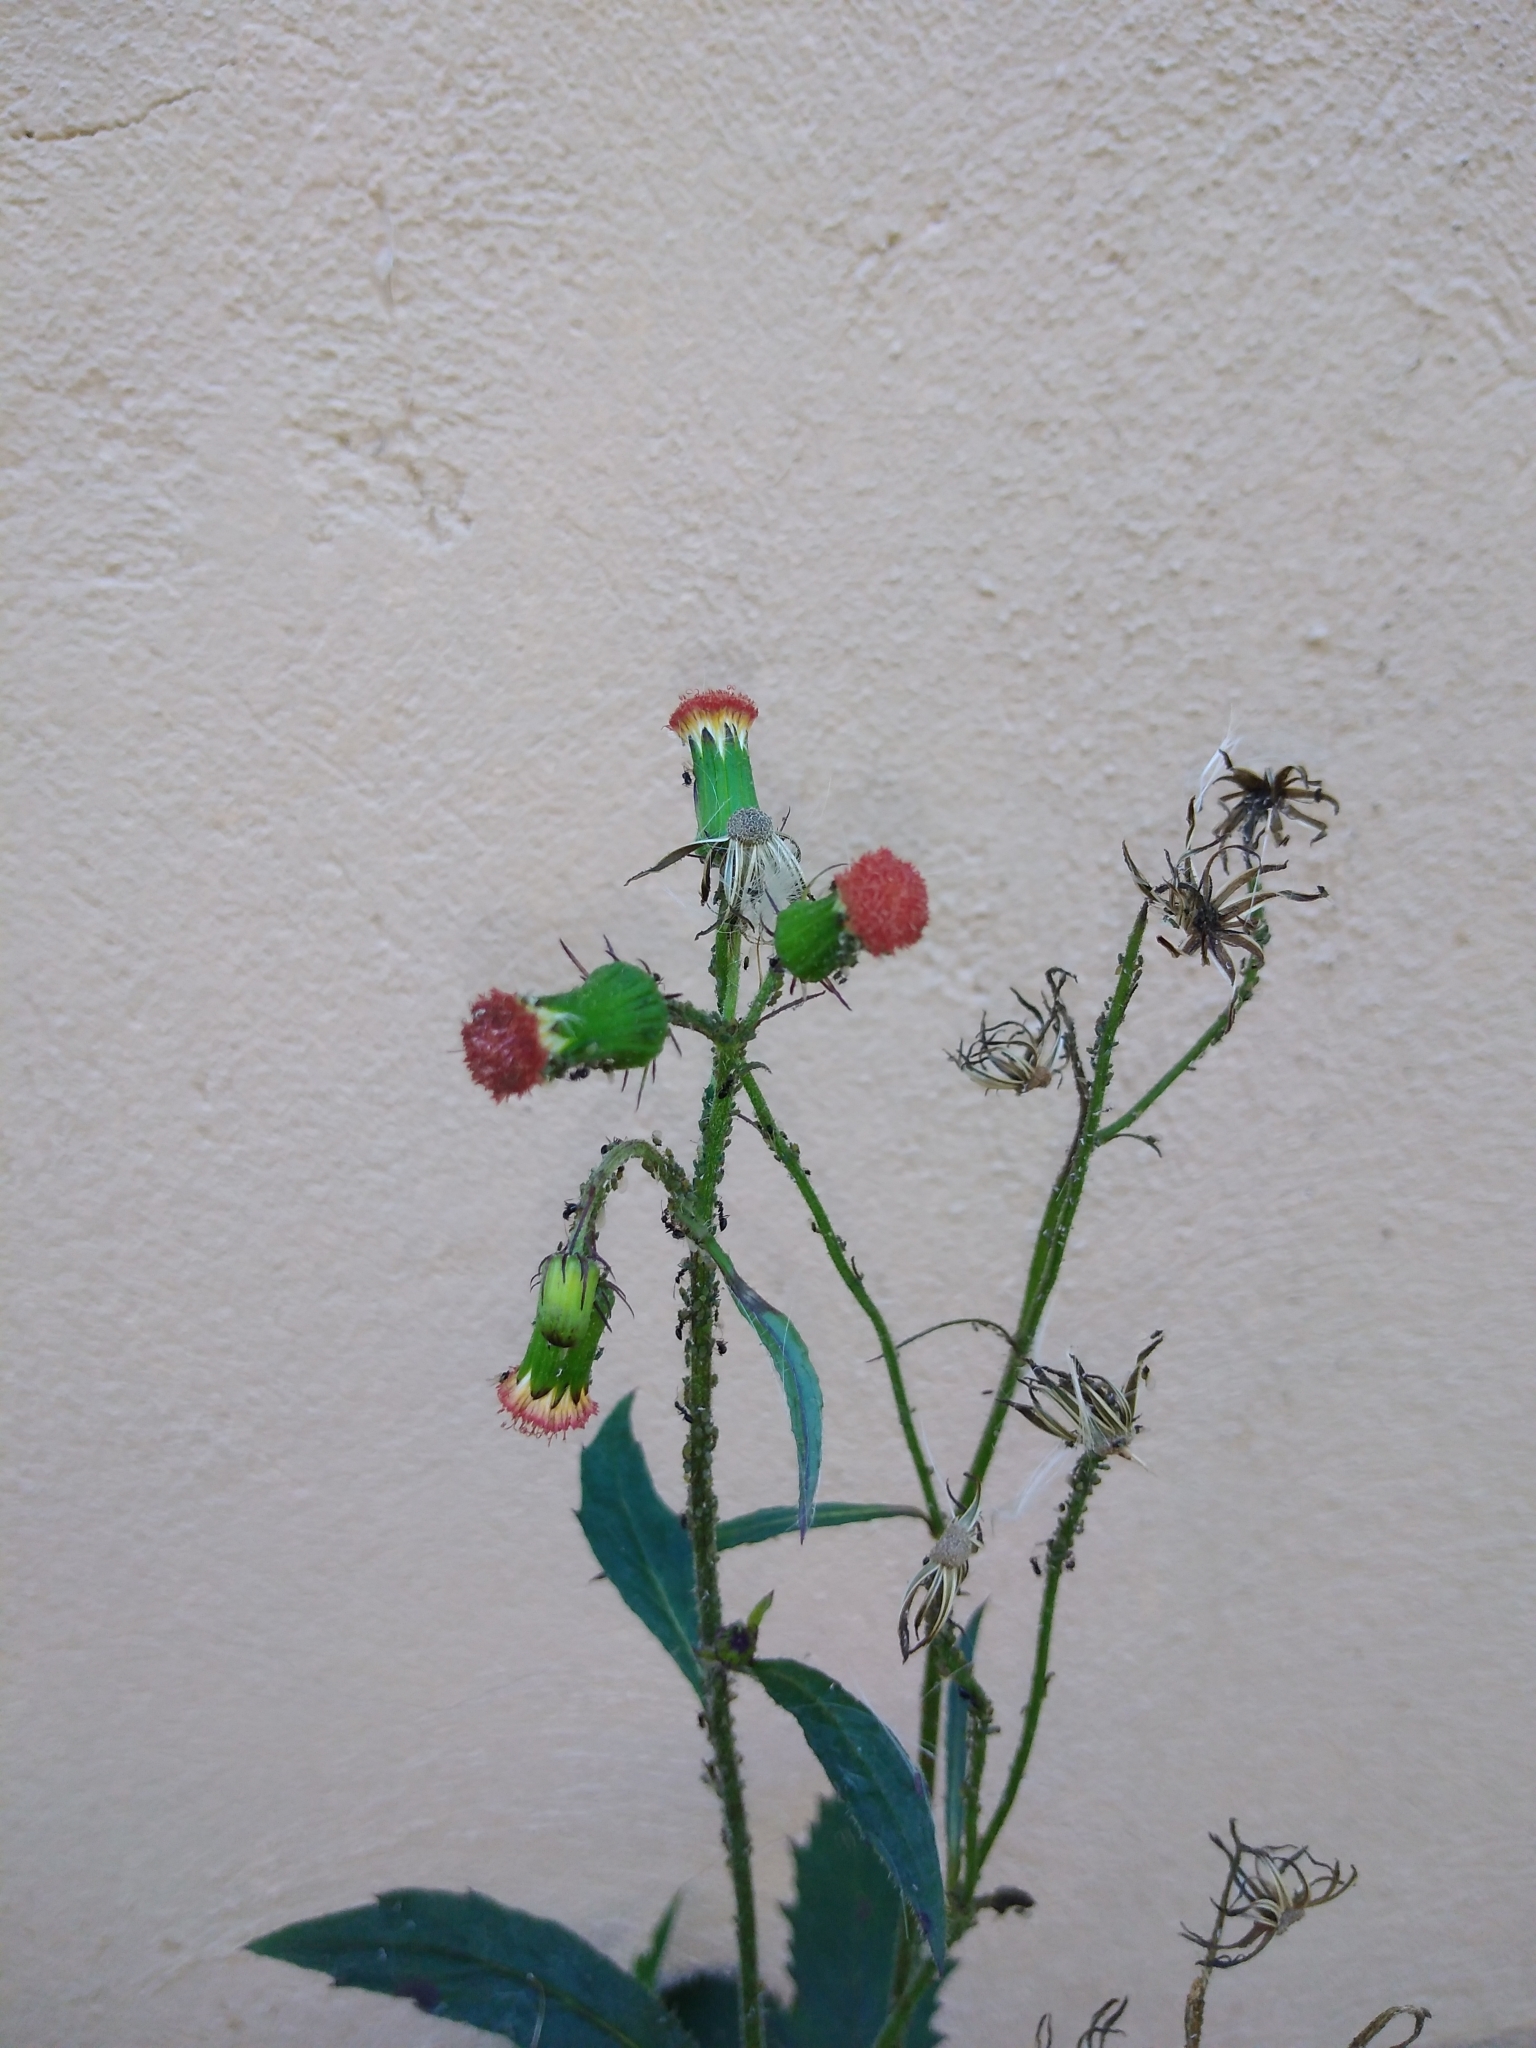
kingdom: Plantae
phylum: Tracheophyta
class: Magnoliopsida
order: Asterales
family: Asteraceae
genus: Crassocephalum
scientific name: Crassocephalum crepidioides
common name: Redflower ragleaf
